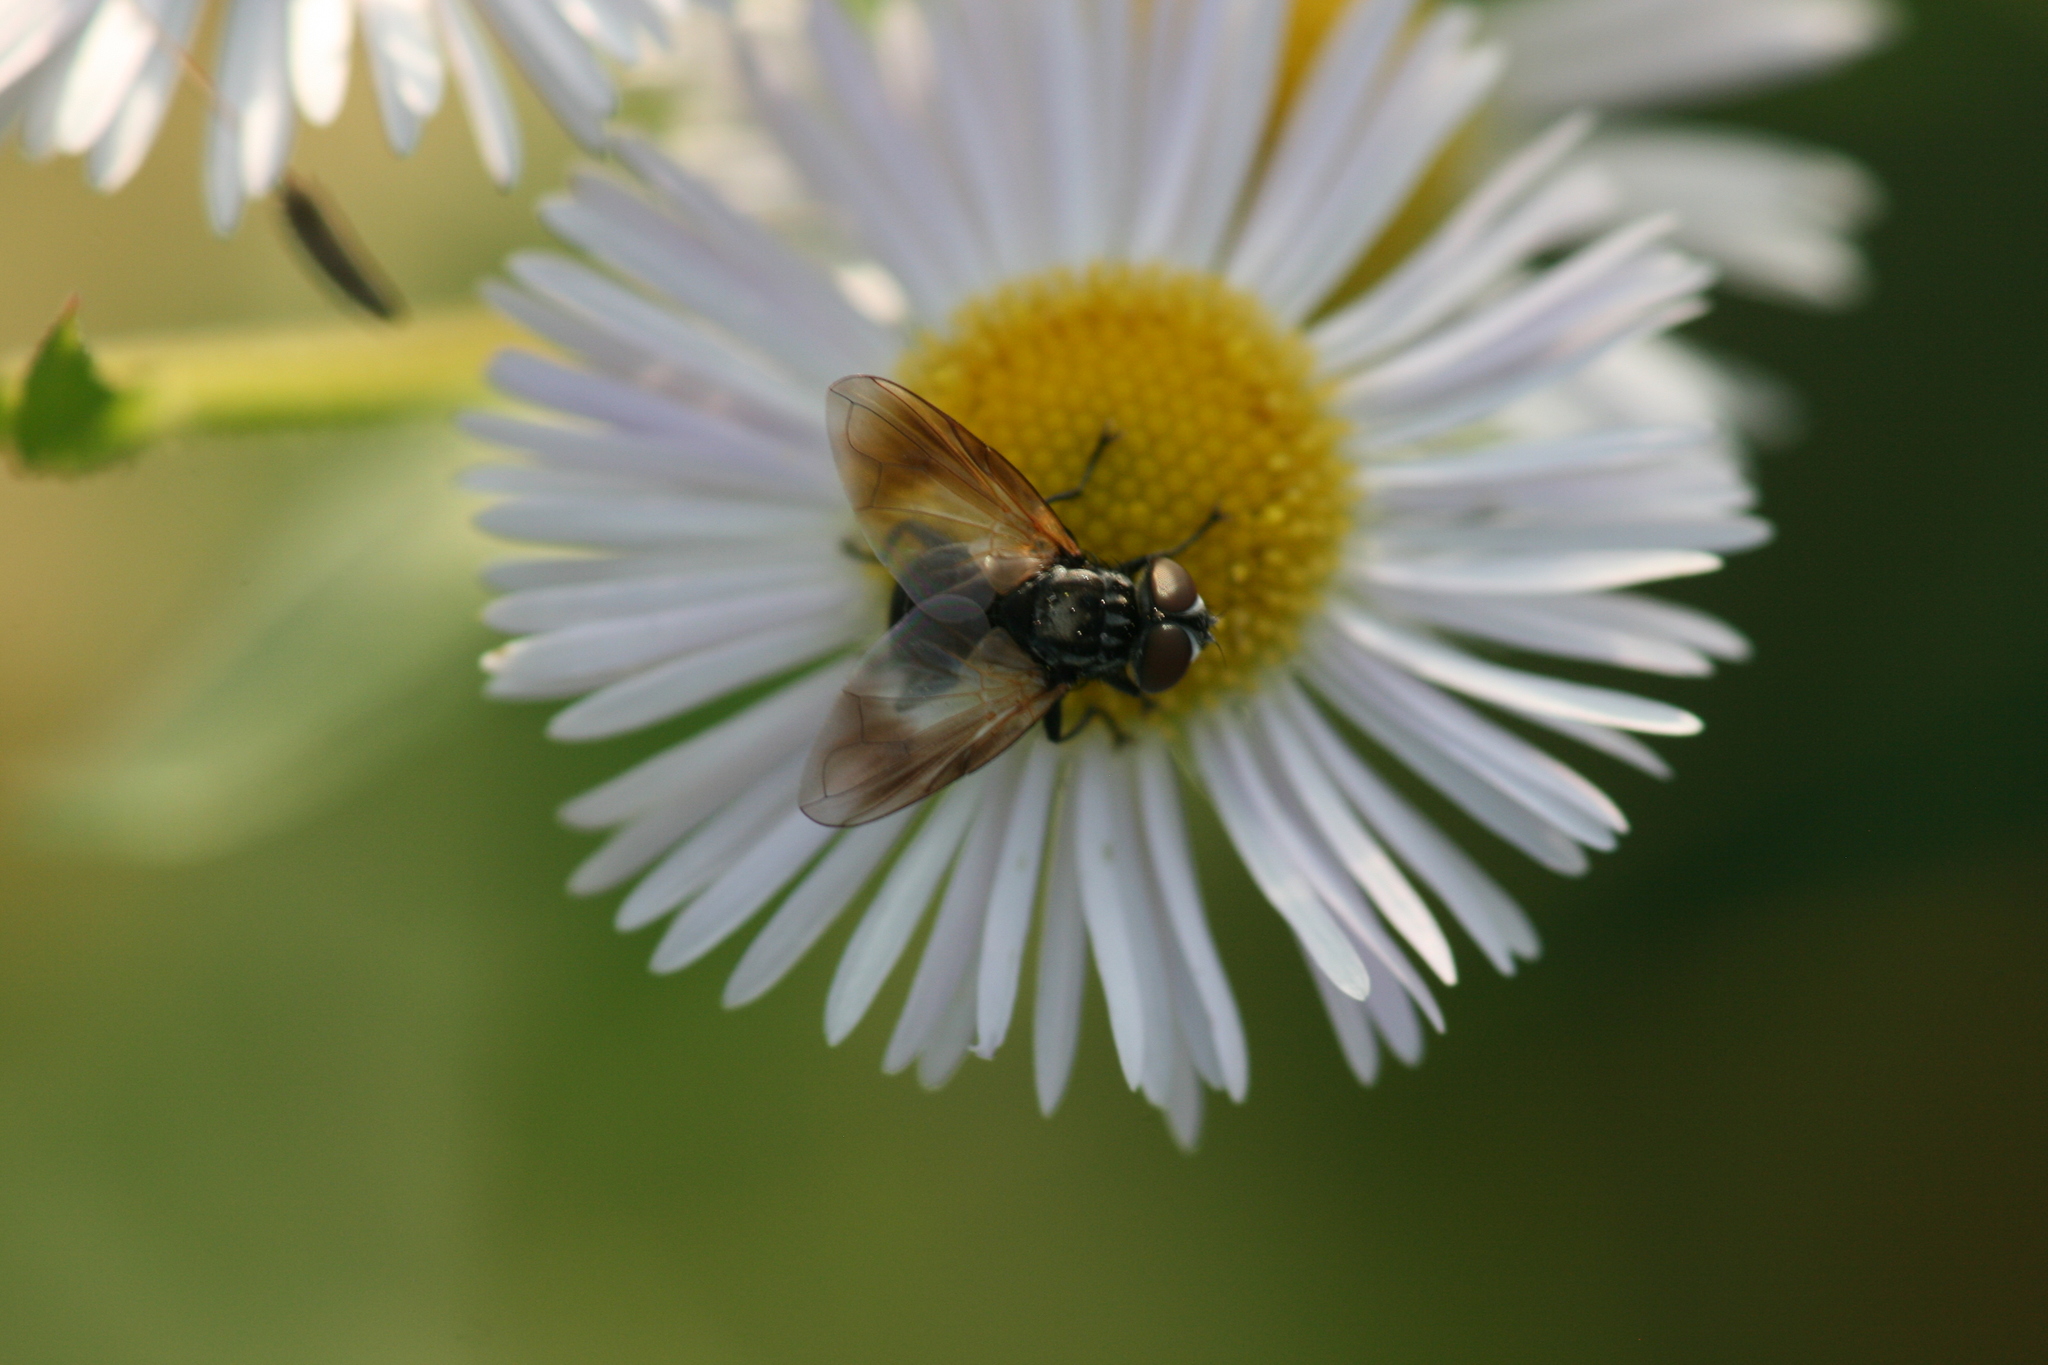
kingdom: Animalia
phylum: Arthropoda
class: Insecta
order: Diptera
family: Tachinidae
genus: Phasia
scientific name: Phasia obesa
